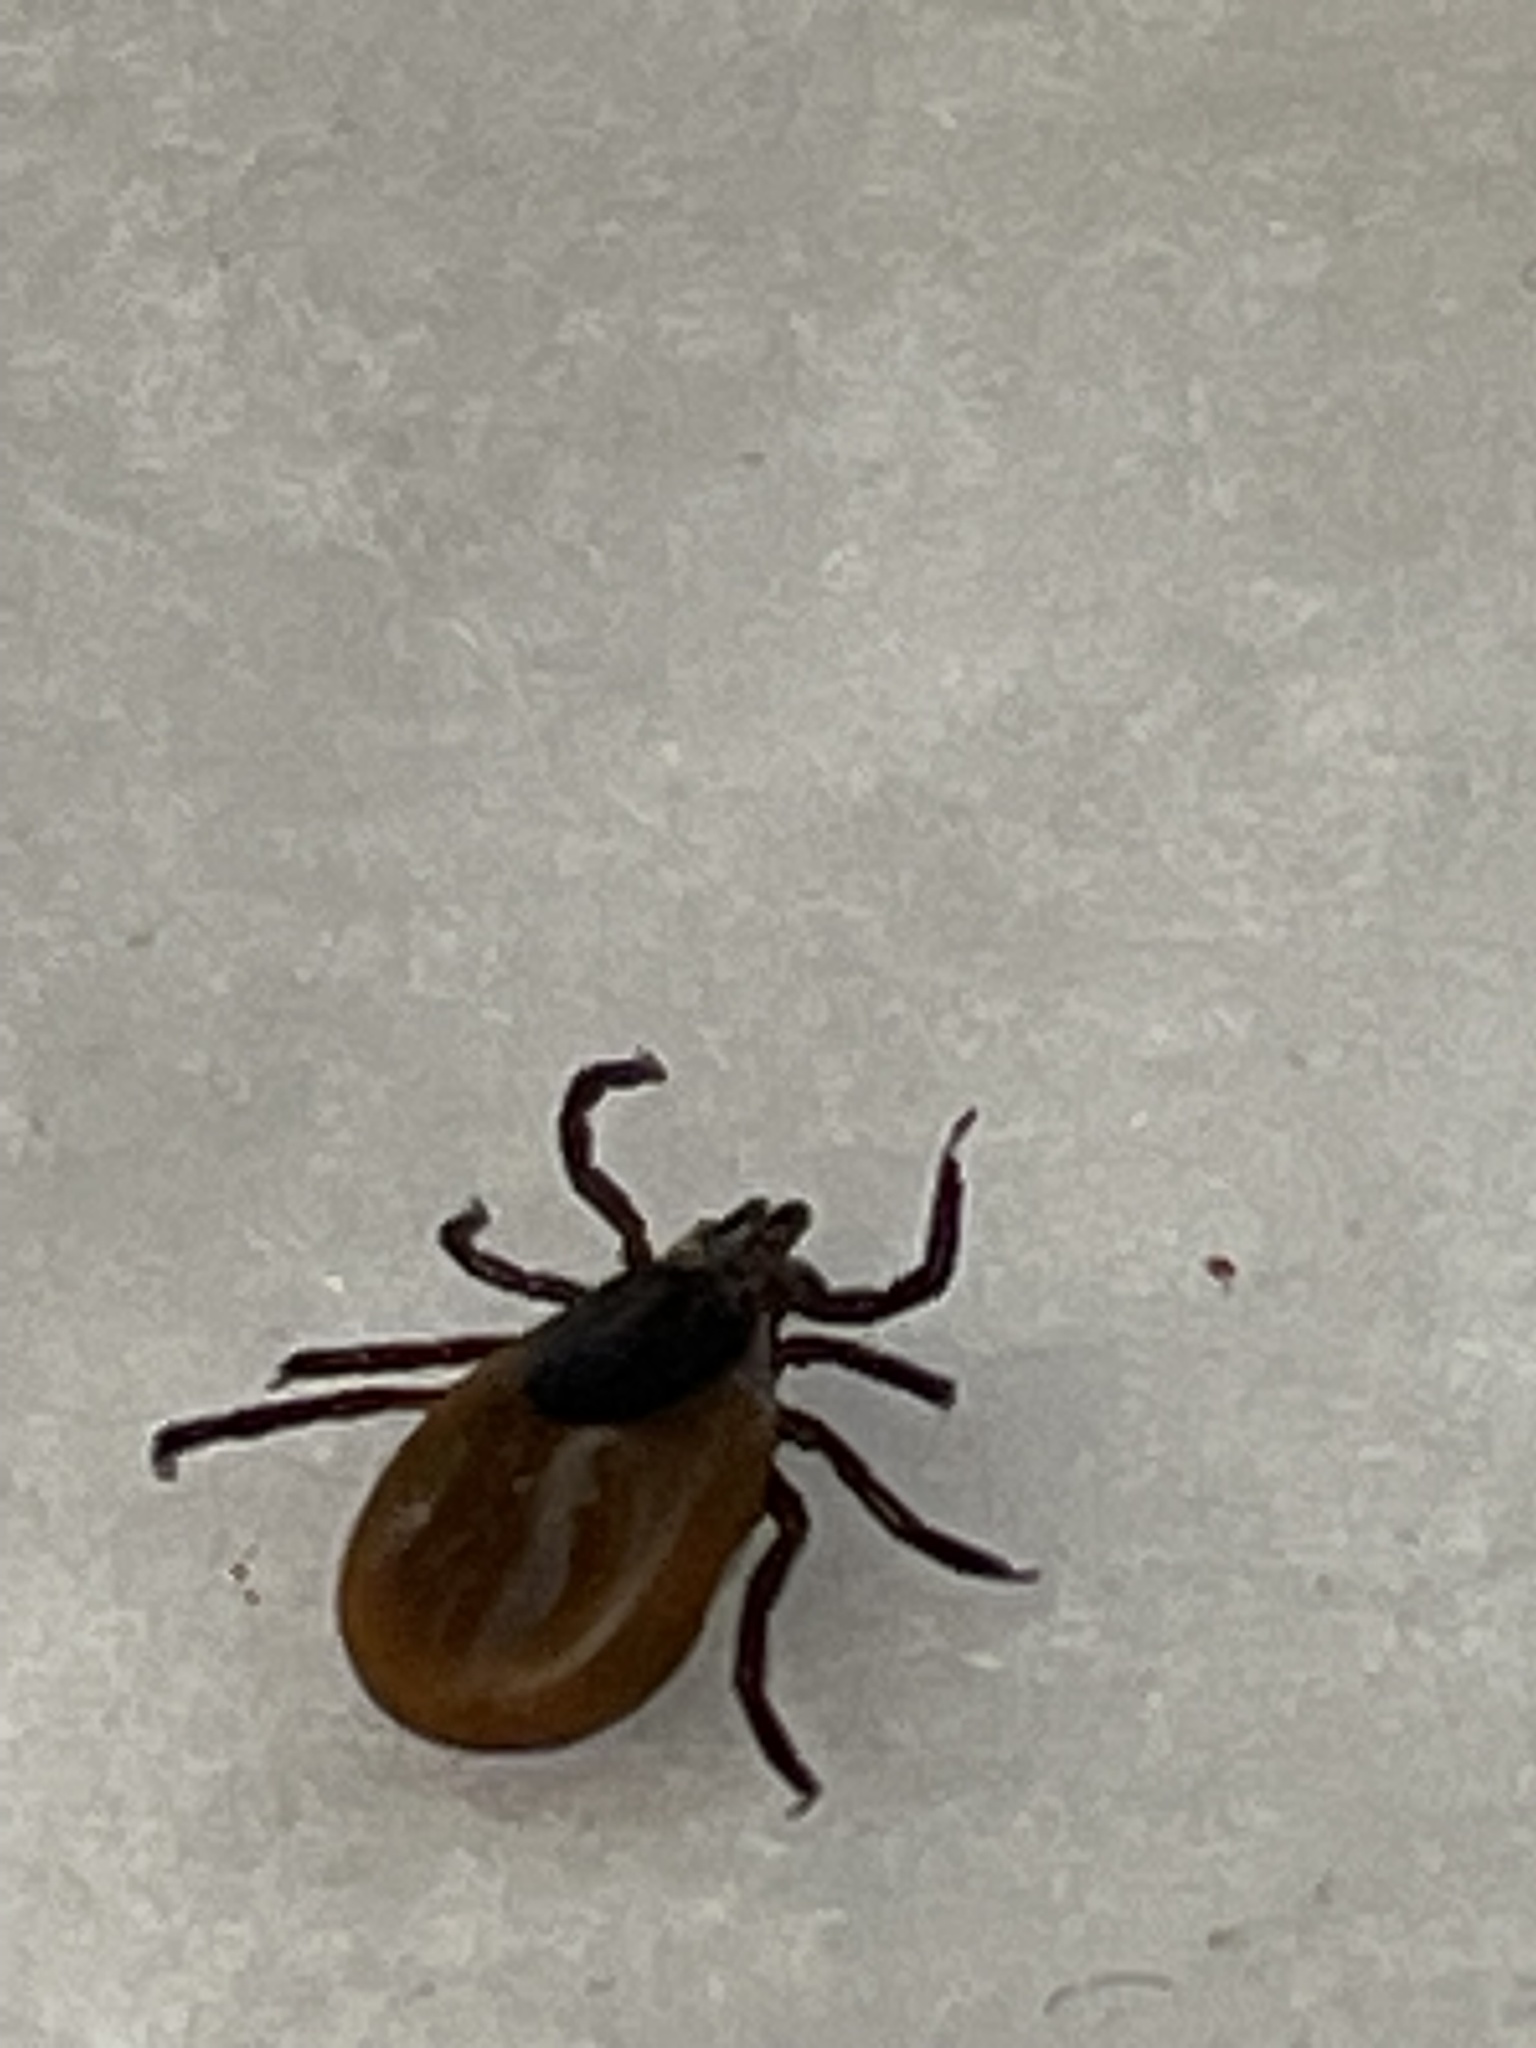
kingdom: Animalia
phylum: Arthropoda
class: Arachnida
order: Ixodida
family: Ixodidae
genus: Ixodes
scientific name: Ixodes scapularis
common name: Black legged tick
